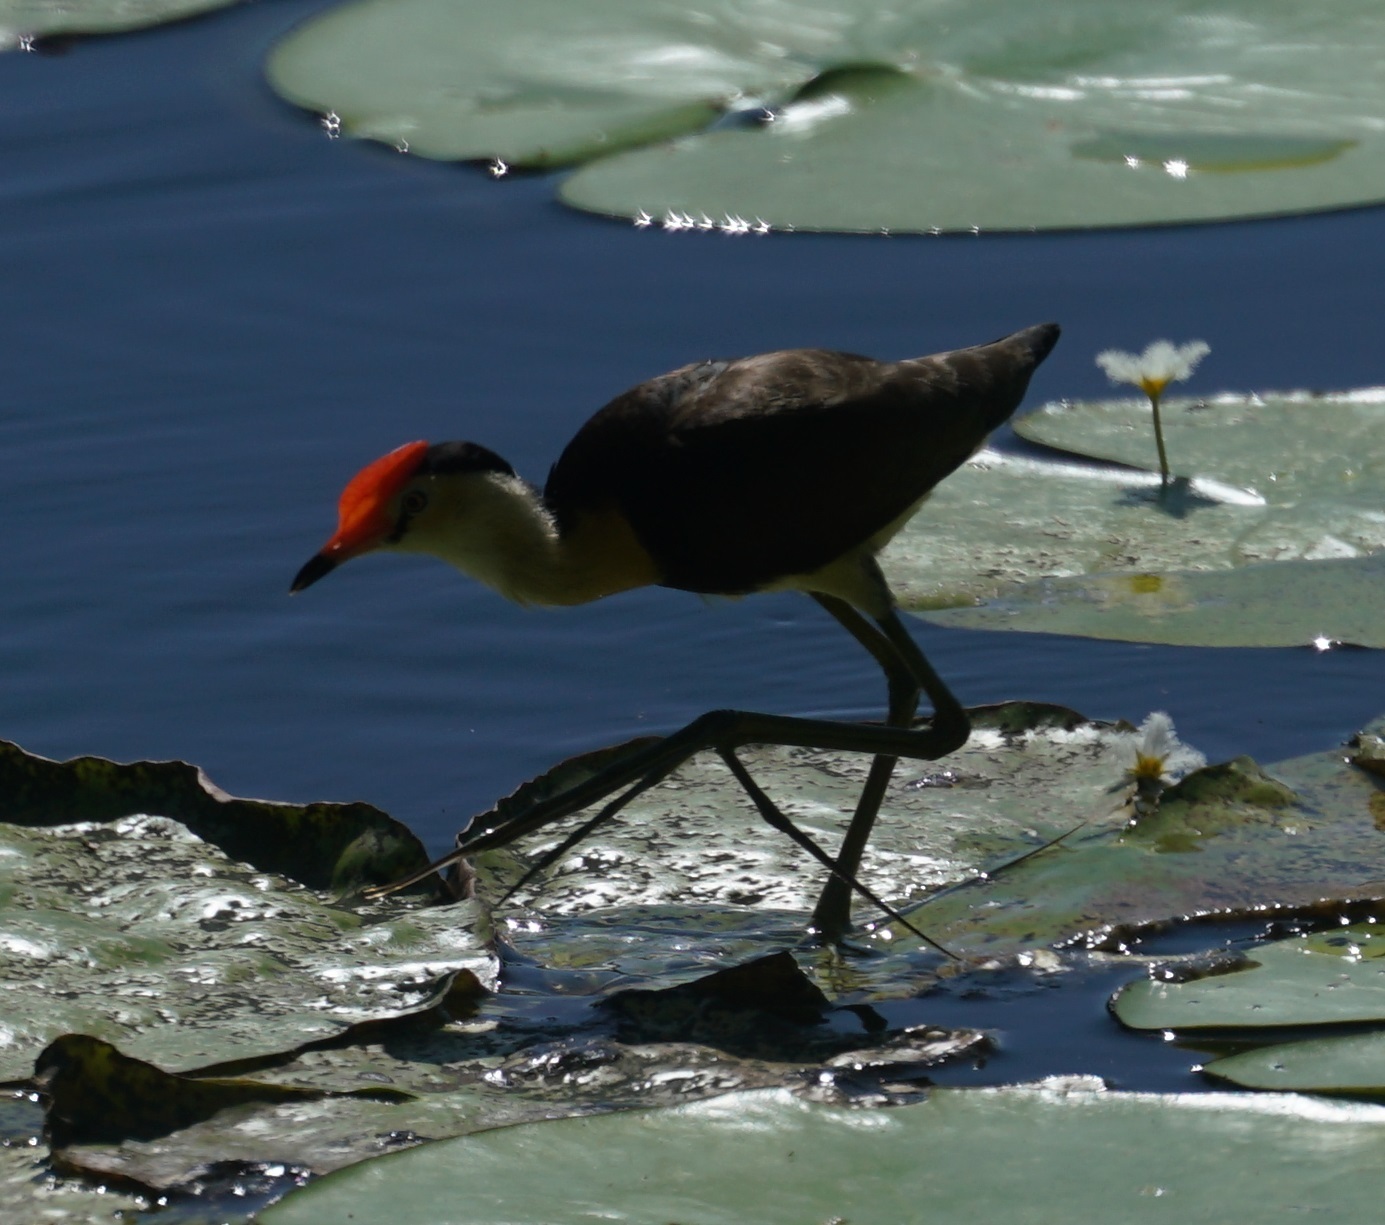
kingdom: Animalia
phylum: Chordata
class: Aves
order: Charadriiformes
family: Jacanidae
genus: Irediparra
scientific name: Irediparra gallinacea
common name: Comb-crested jacana
